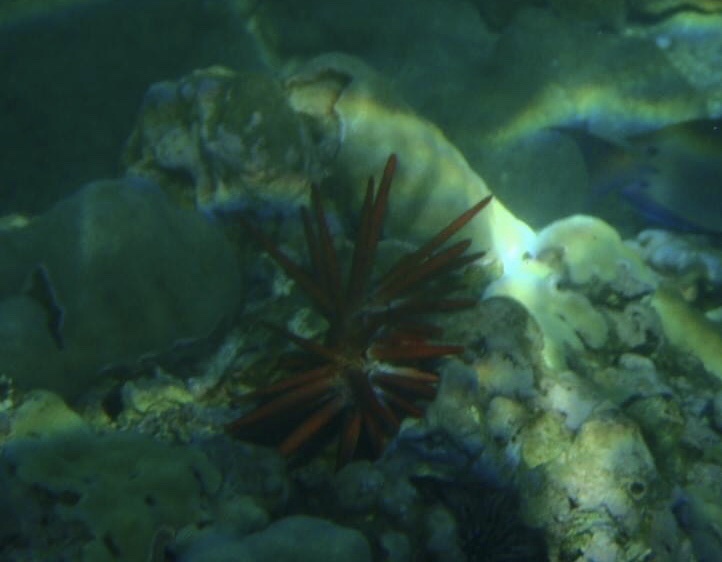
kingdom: Animalia
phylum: Echinodermata
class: Echinoidea
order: Camarodonta
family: Echinometridae
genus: Heterocentrotus
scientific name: Heterocentrotus mamillatus
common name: Slate pencil urchin
